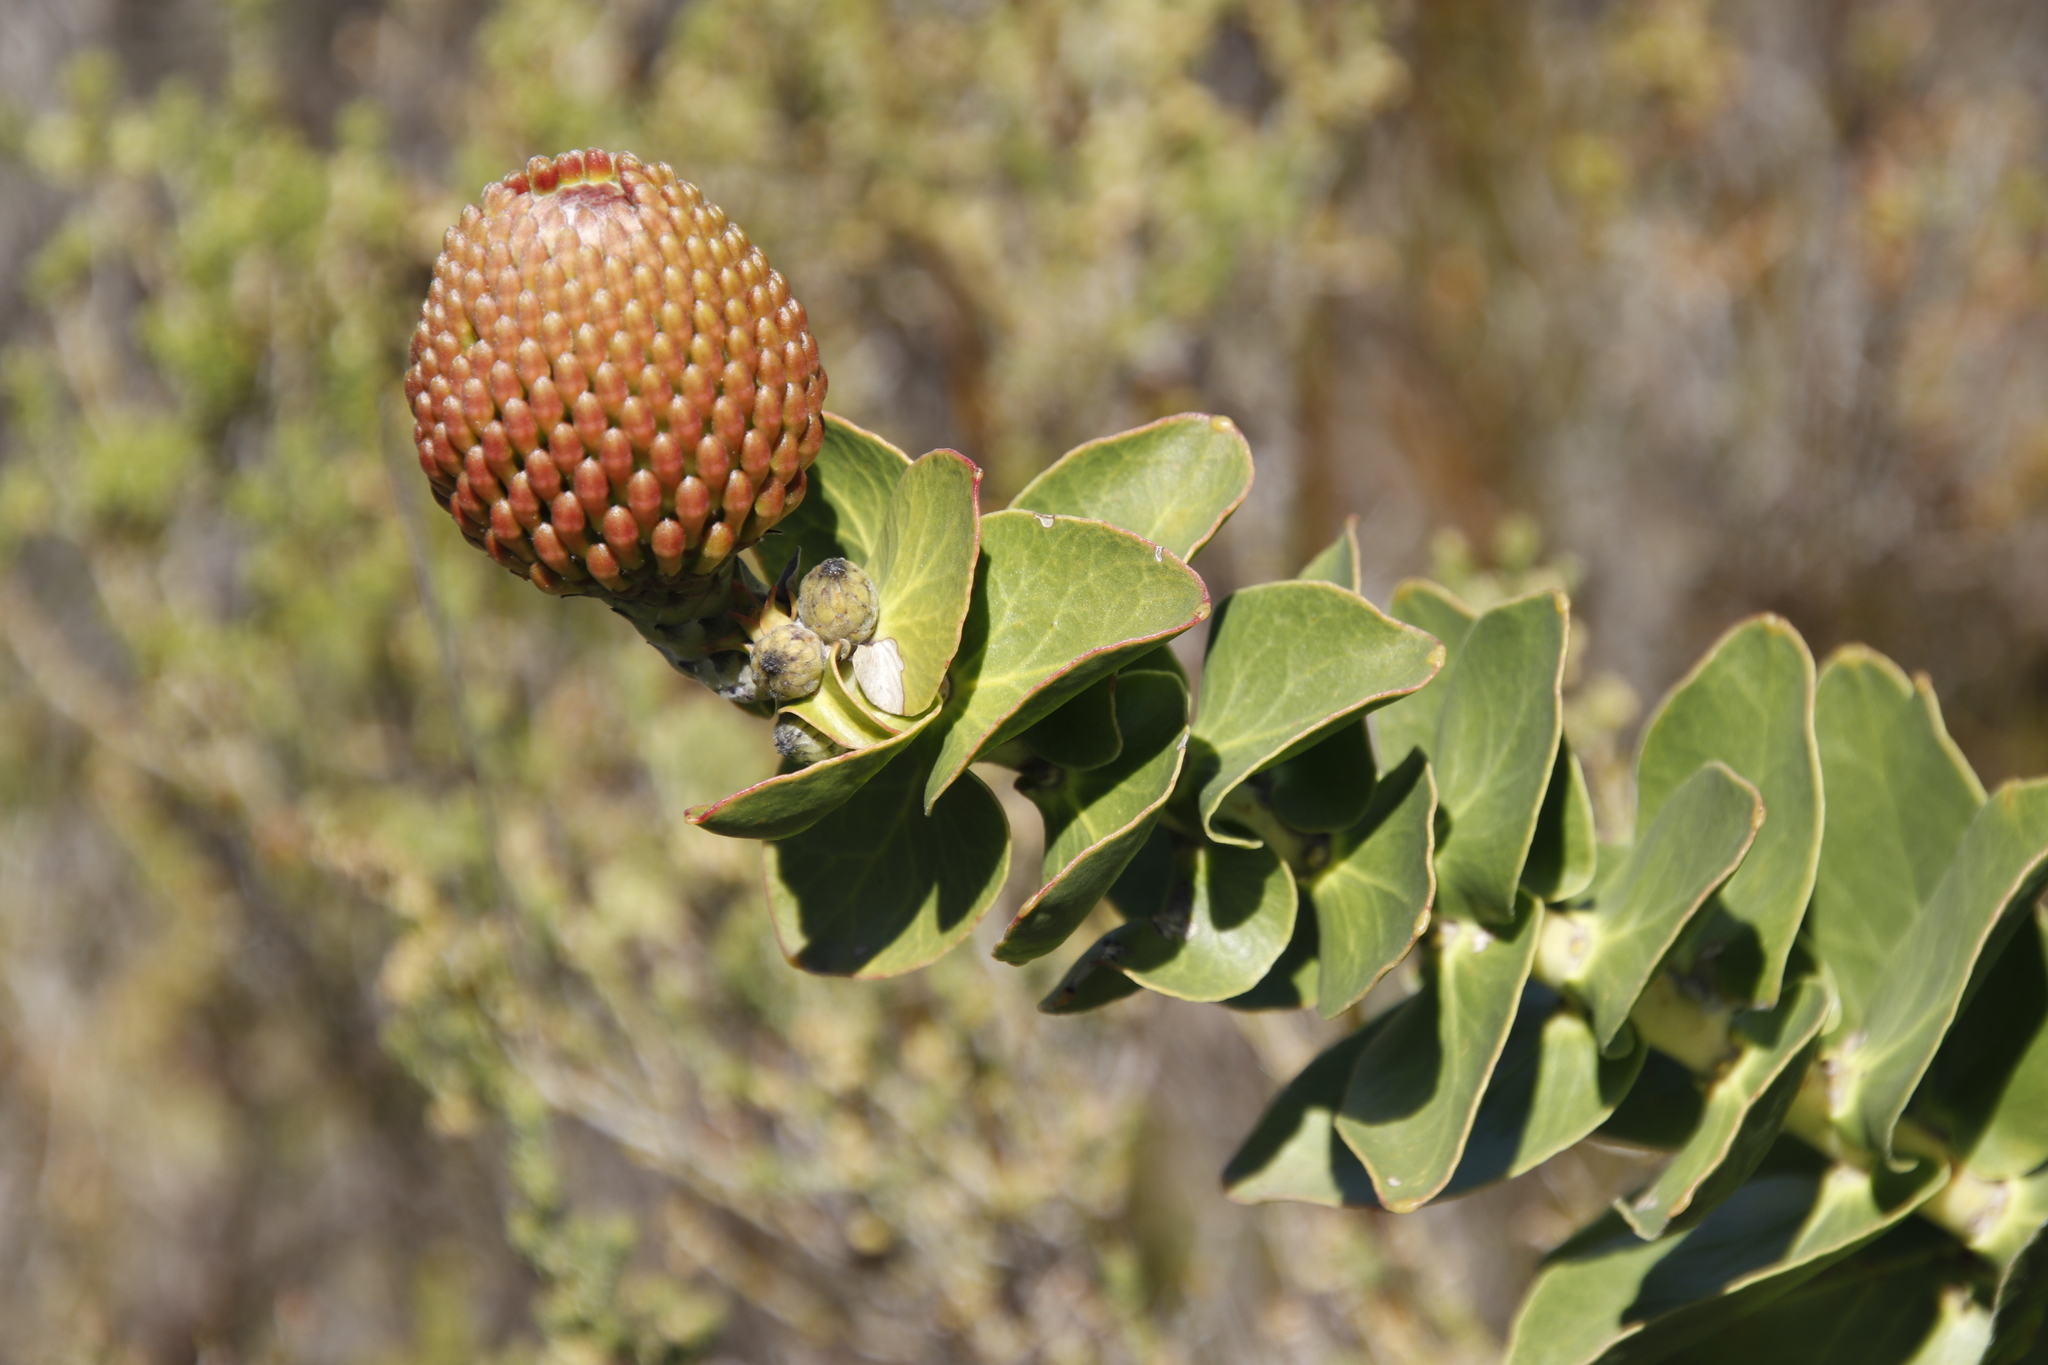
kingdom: Plantae
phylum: Tracheophyta
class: Magnoliopsida
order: Proteales
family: Proteaceae
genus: Leucospermum
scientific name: Leucospermum cordifolium
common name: Red pincushion-protea
